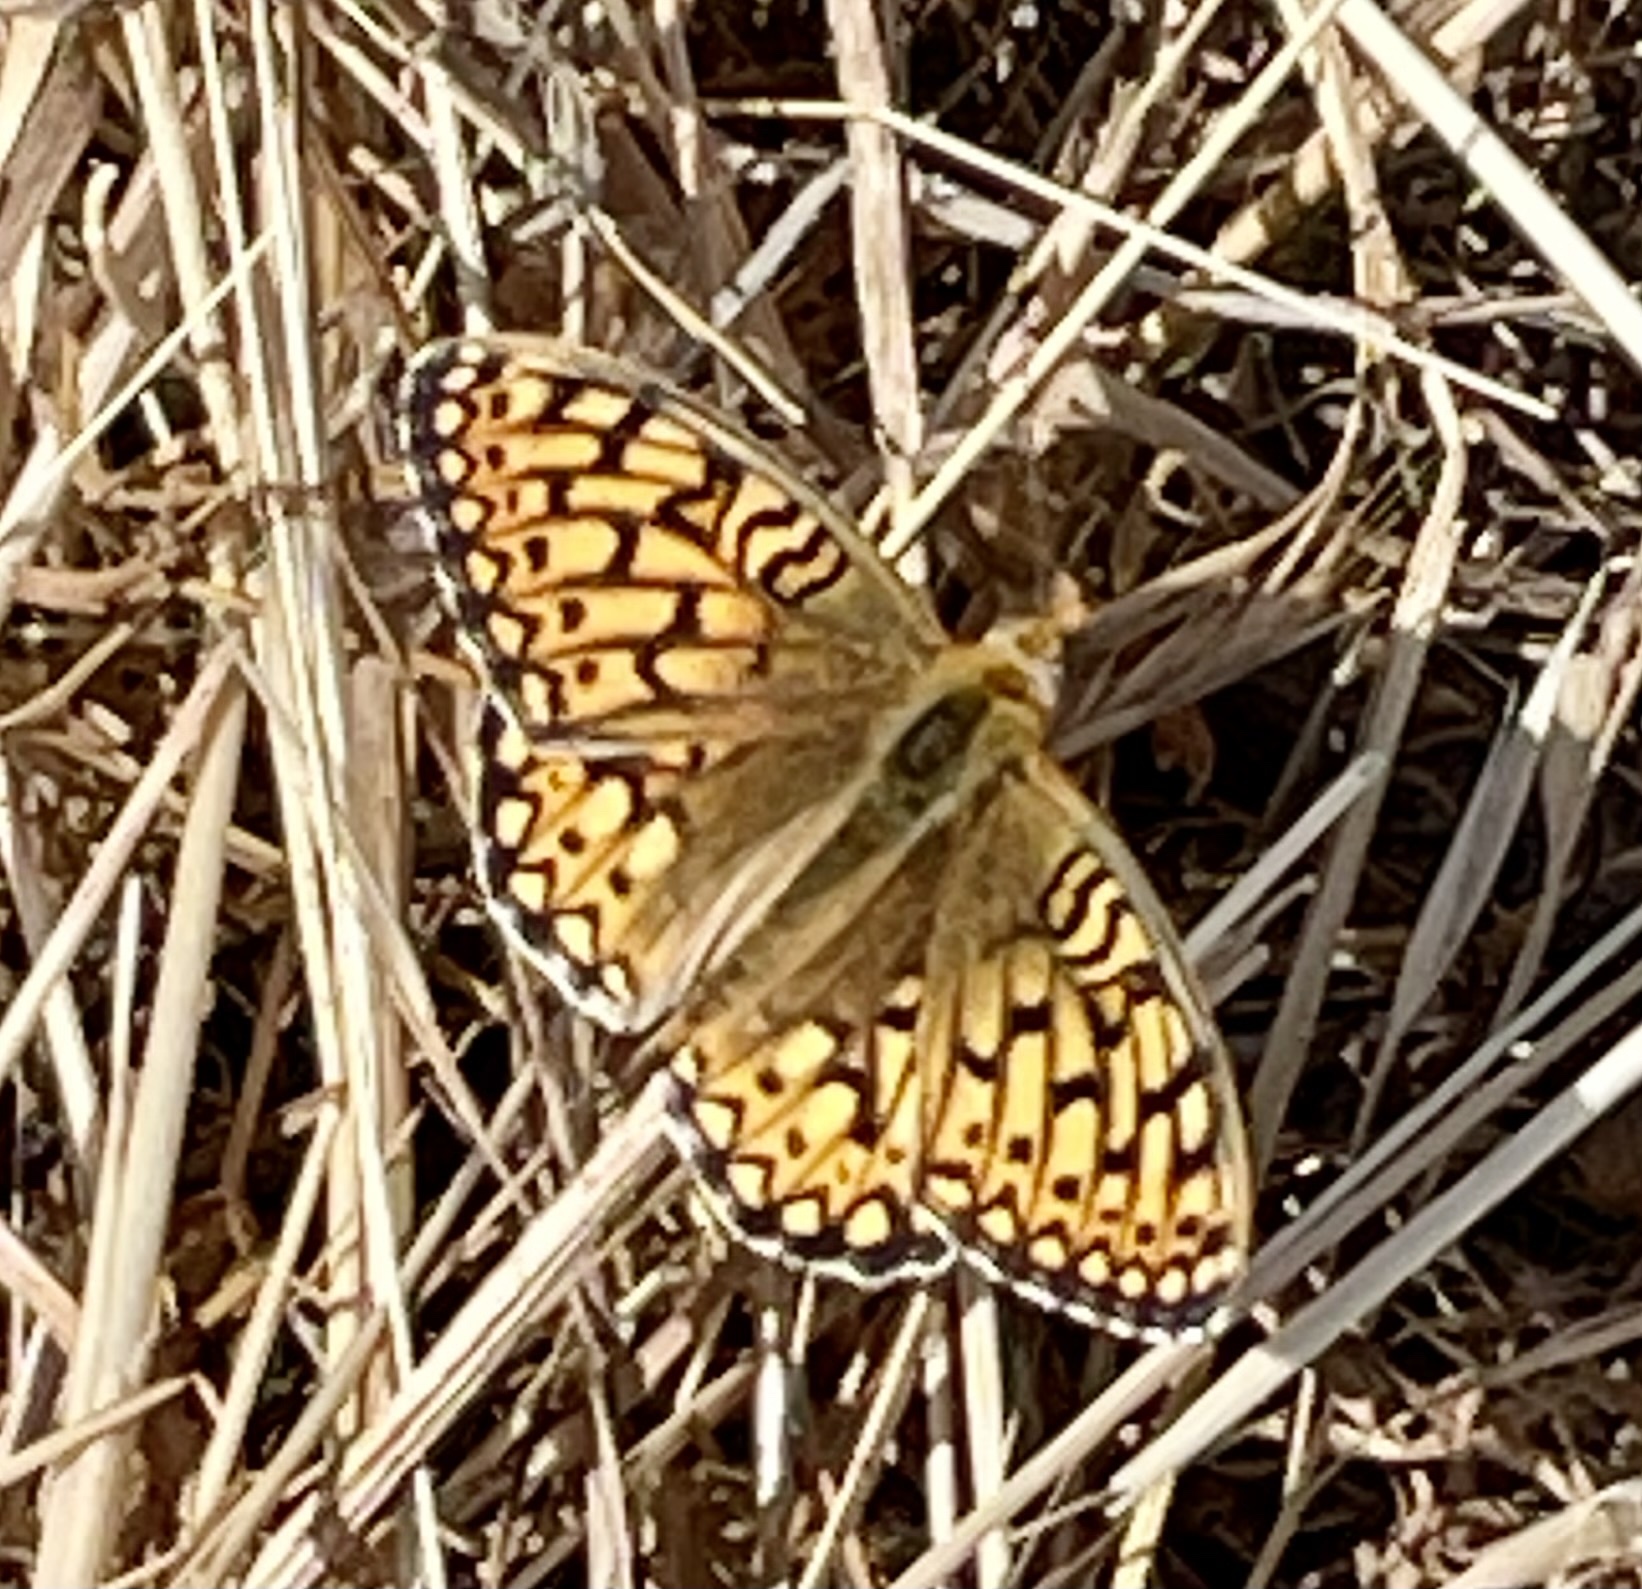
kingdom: Animalia
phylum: Arthropoda
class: Insecta
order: Lepidoptera
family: Nymphalidae
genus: Speyeria
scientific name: Speyeria callippe
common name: Callippe fritillary
